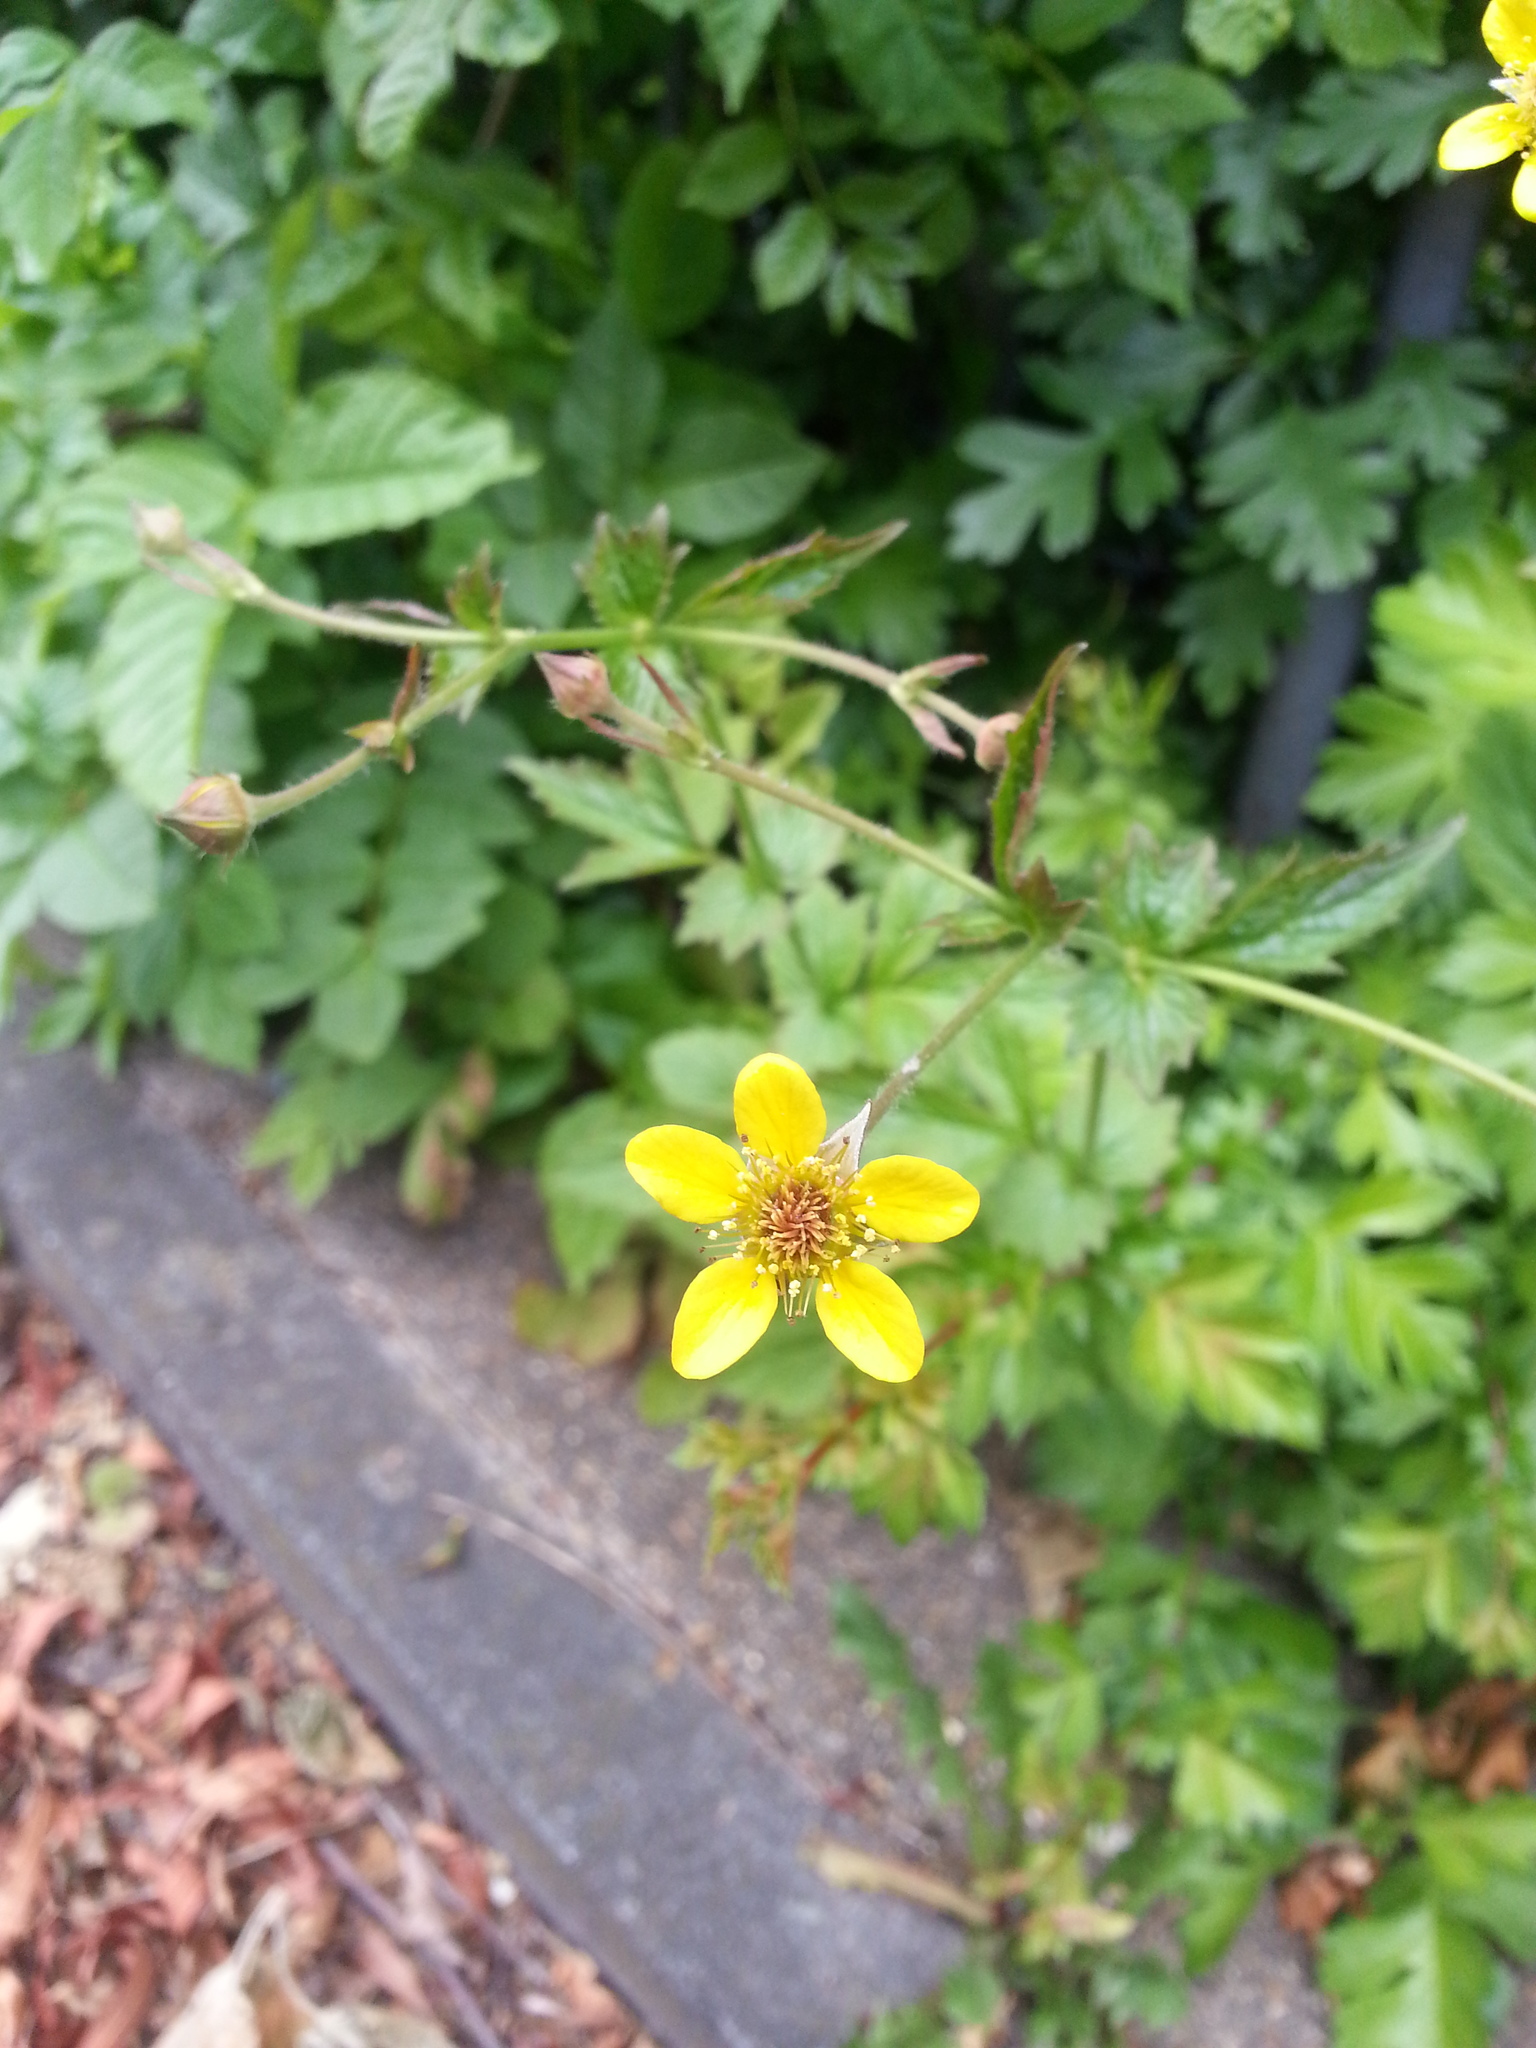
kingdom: Plantae
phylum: Tracheophyta
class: Magnoliopsida
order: Rosales
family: Rosaceae
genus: Geum
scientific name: Geum urbanum
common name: Wood avens
